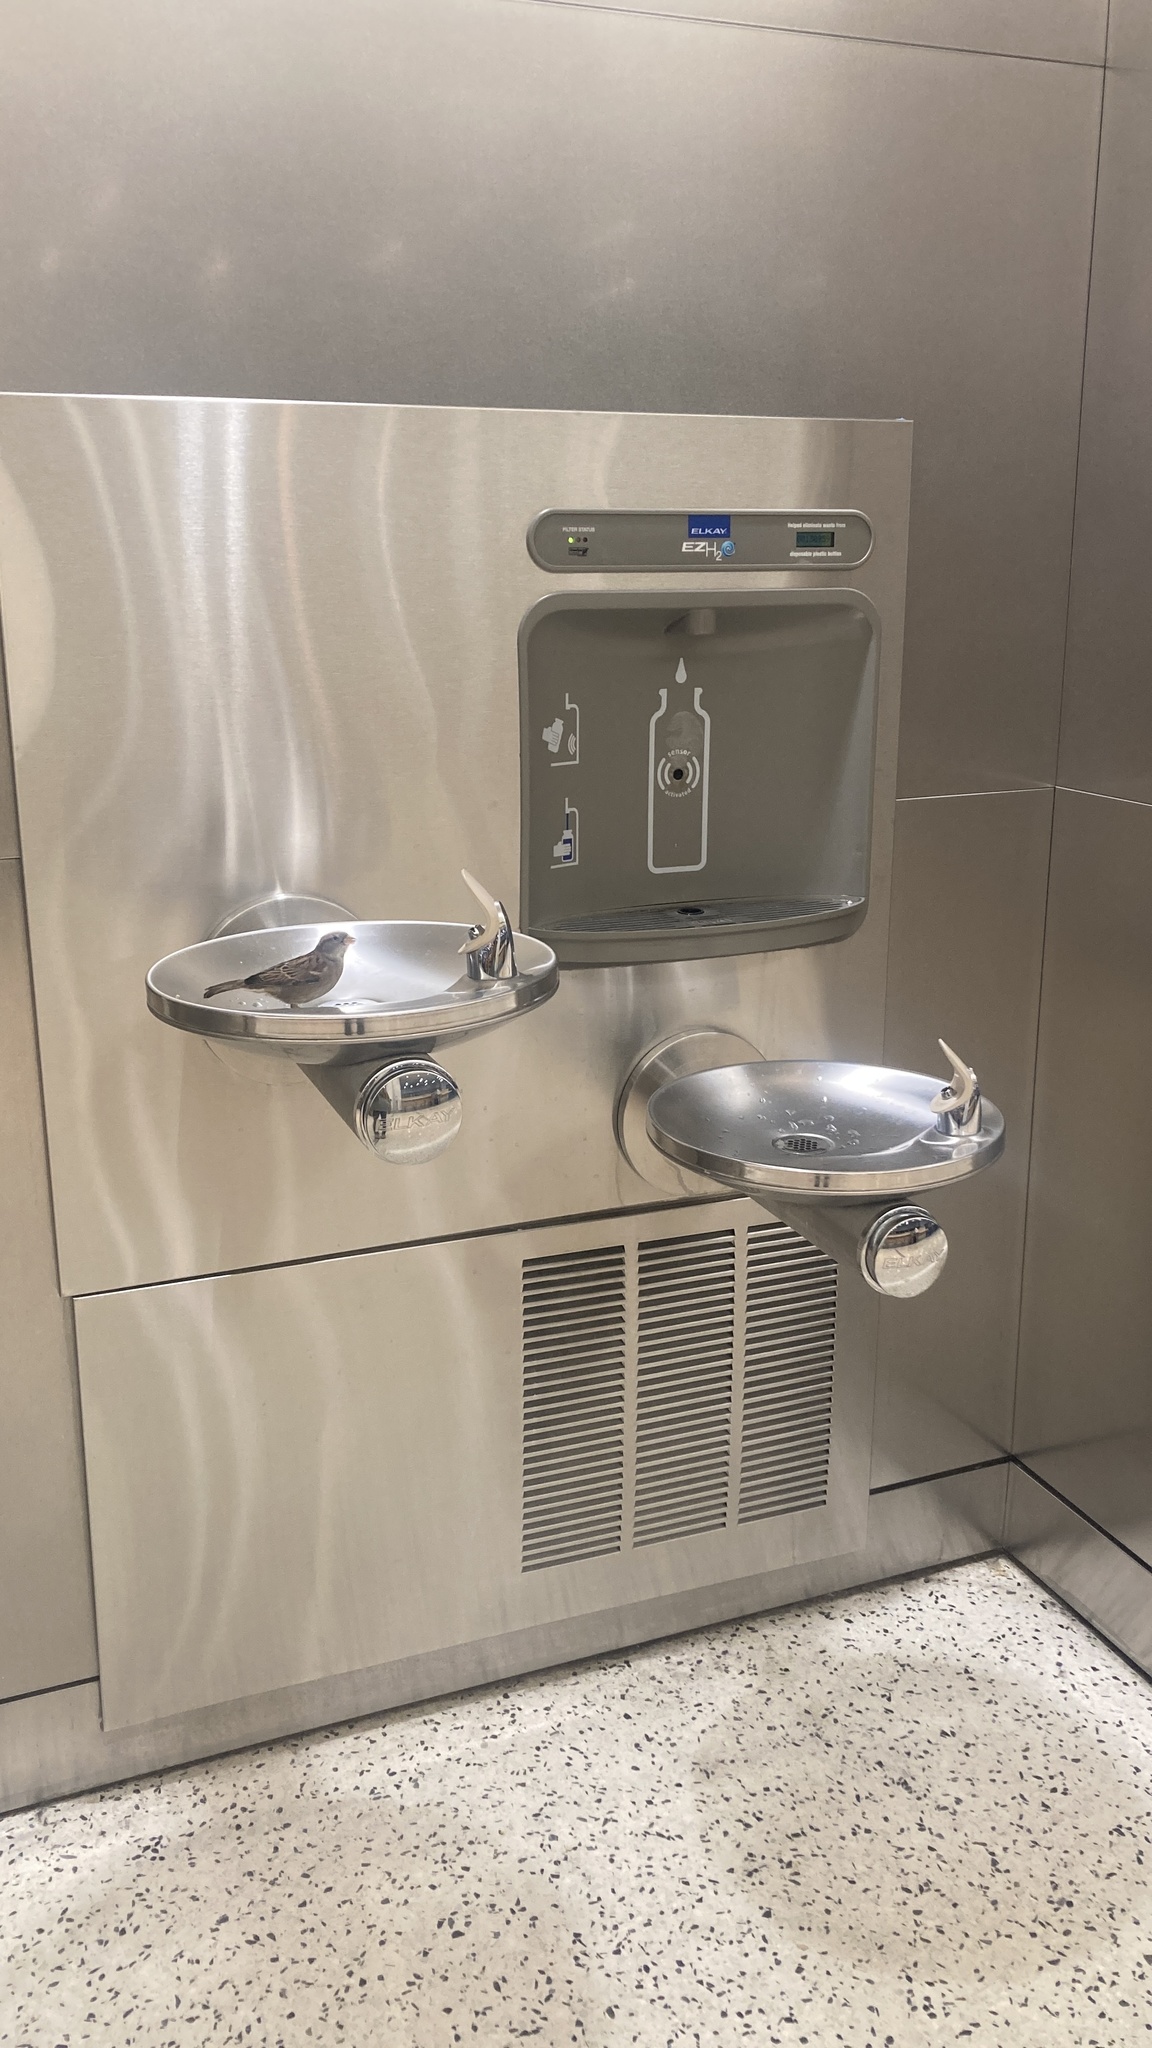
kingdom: Animalia
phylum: Chordata
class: Aves
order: Passeriformes
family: Passeridae
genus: Passer
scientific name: Passer domesticus
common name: House sparrow
